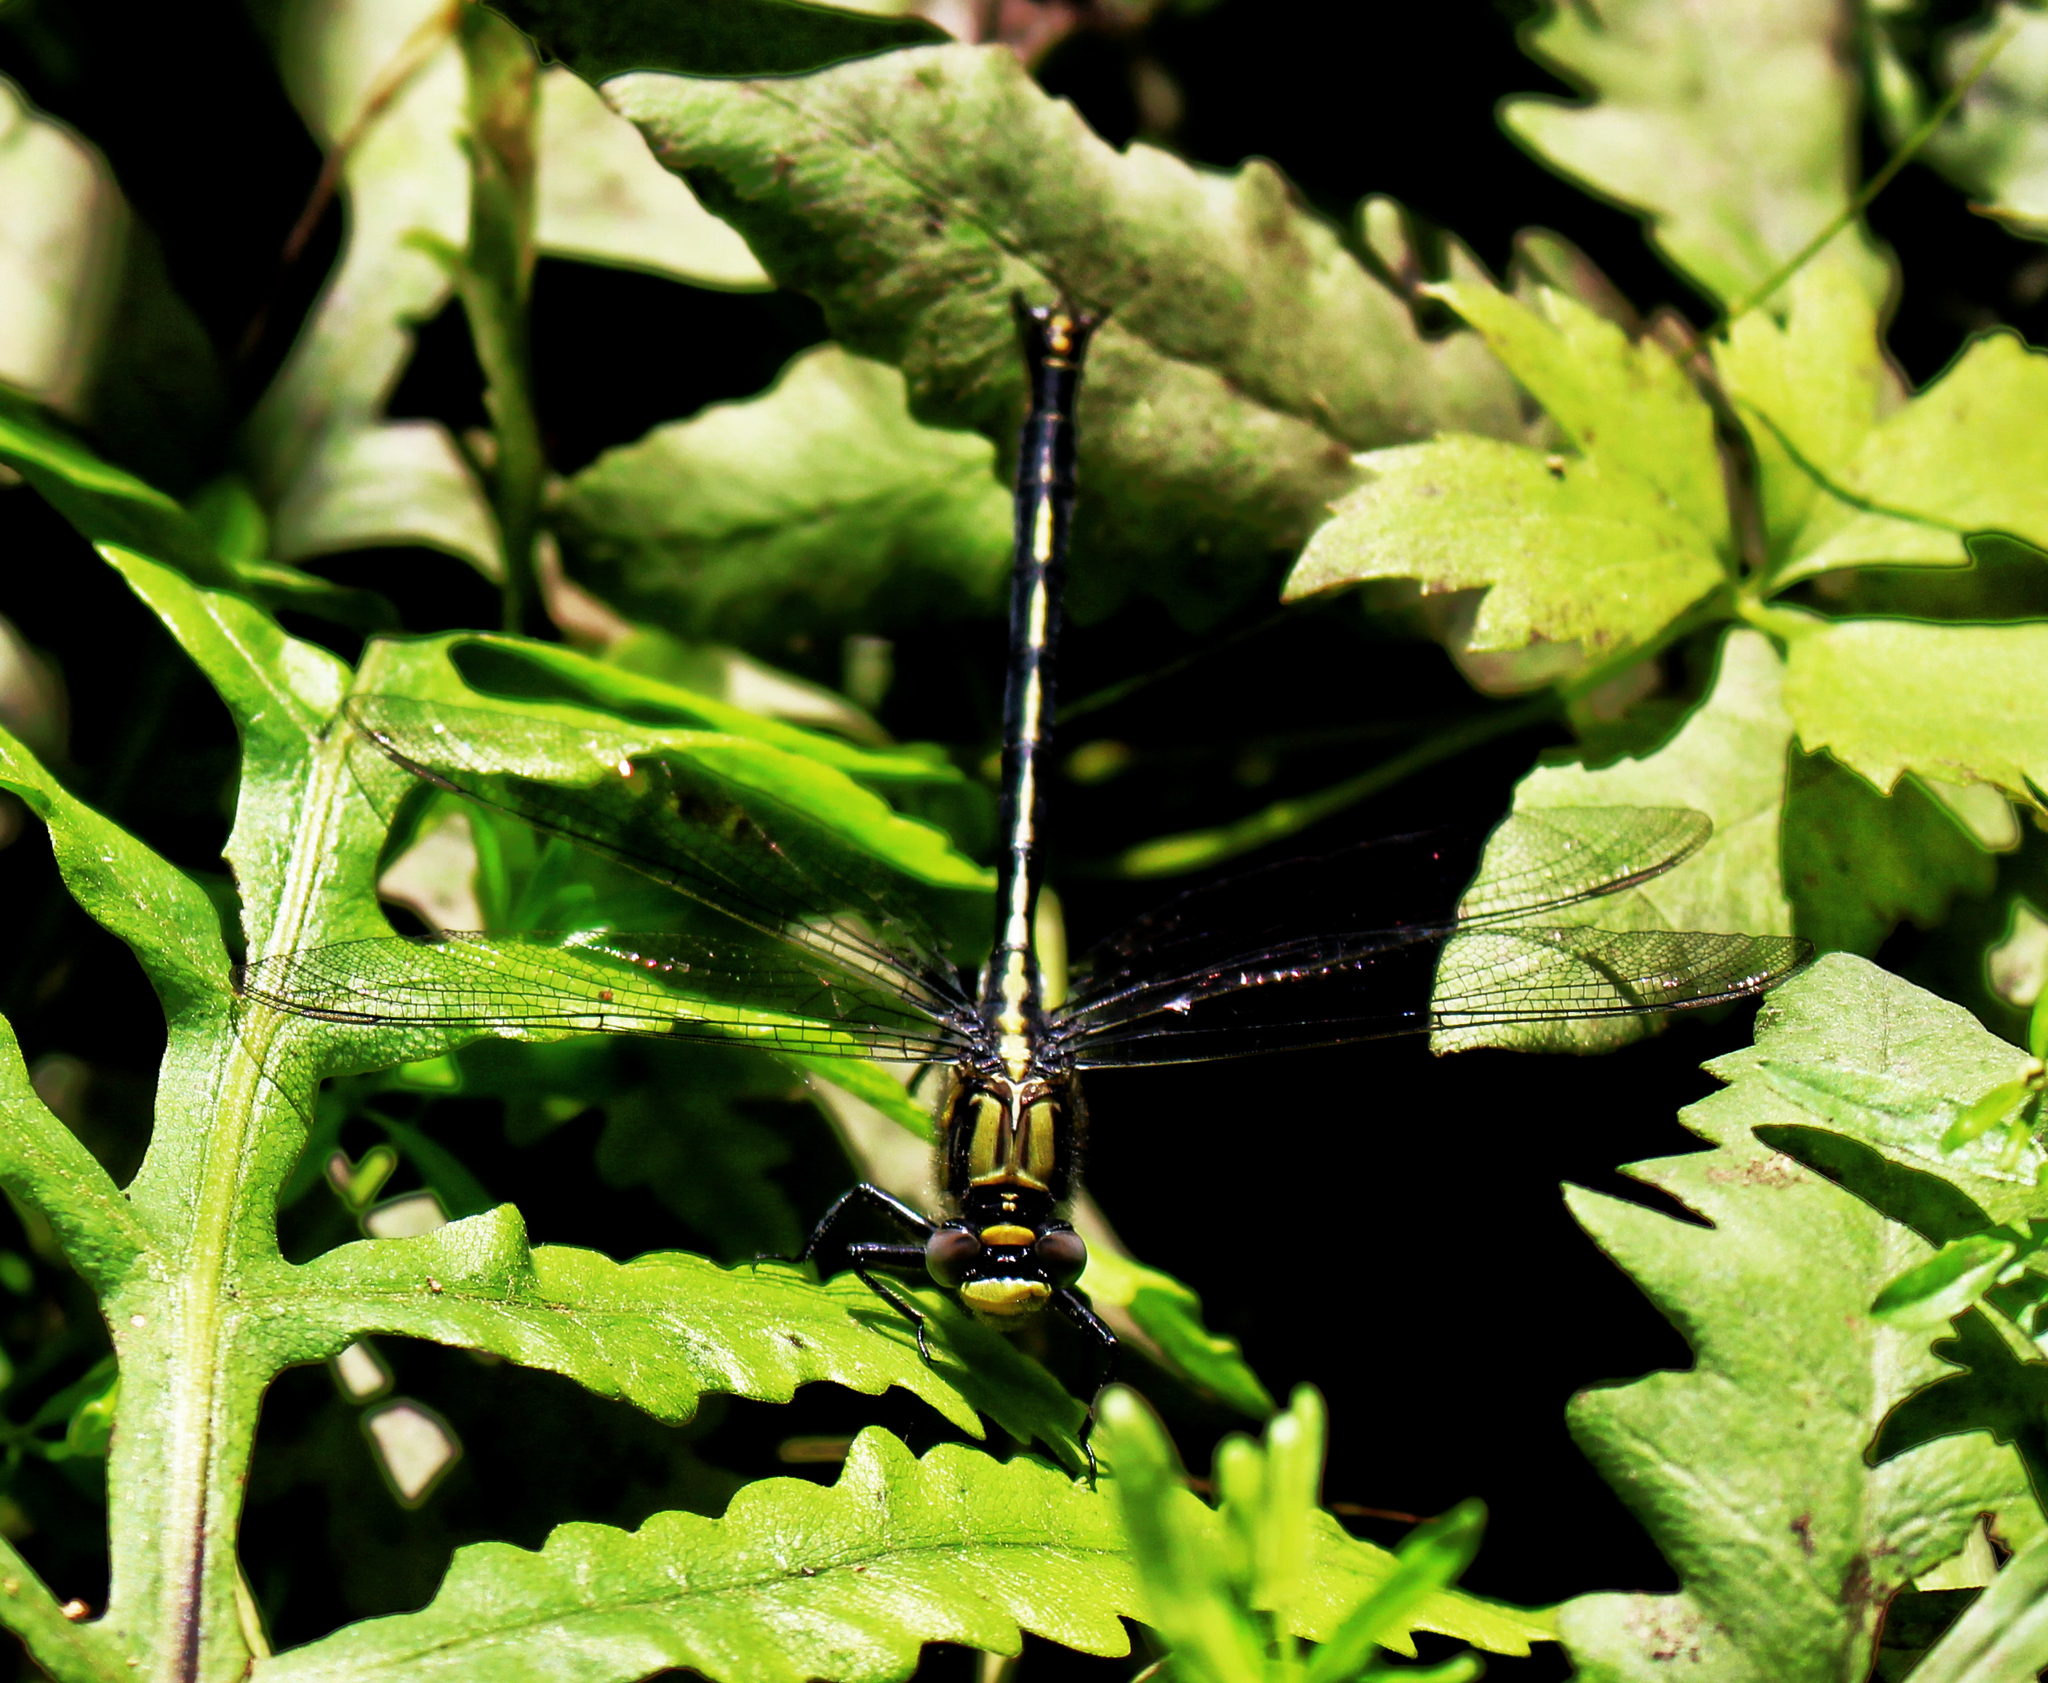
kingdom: Animalia
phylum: Arthropoda
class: Insecta
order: Odonata
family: Gomphidae
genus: Arigomphus
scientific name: Arigomphus cornutus
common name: Horned clubtail
